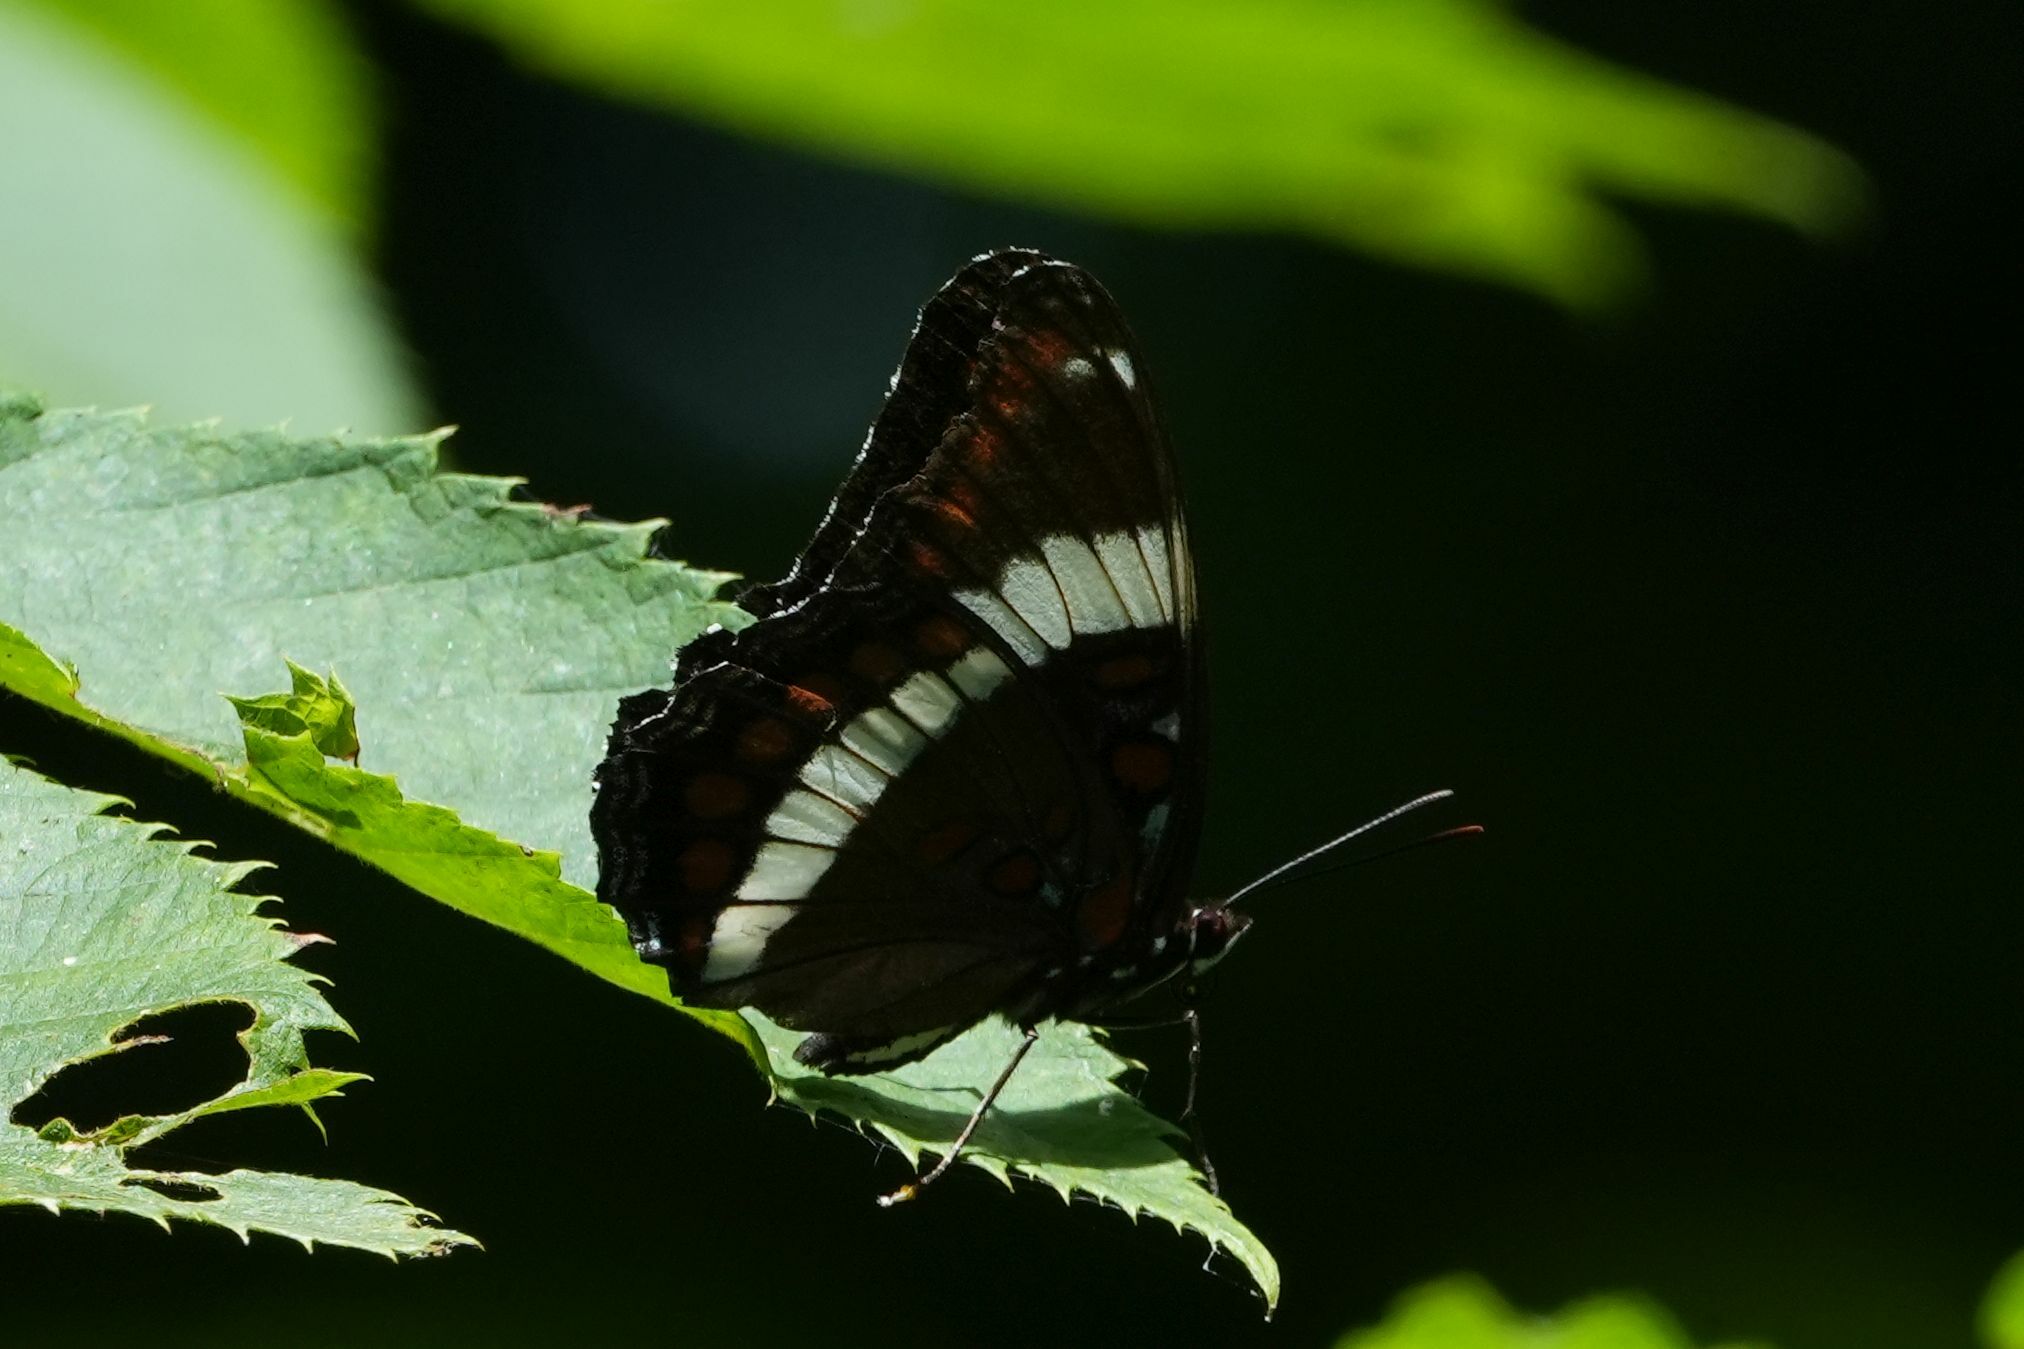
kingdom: Animalia
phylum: Arthropoda
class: Insecta
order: Lepidoptera
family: Nymphalidae
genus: Limenitis
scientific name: Limenitis arthemis
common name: Red-spotted admiral
